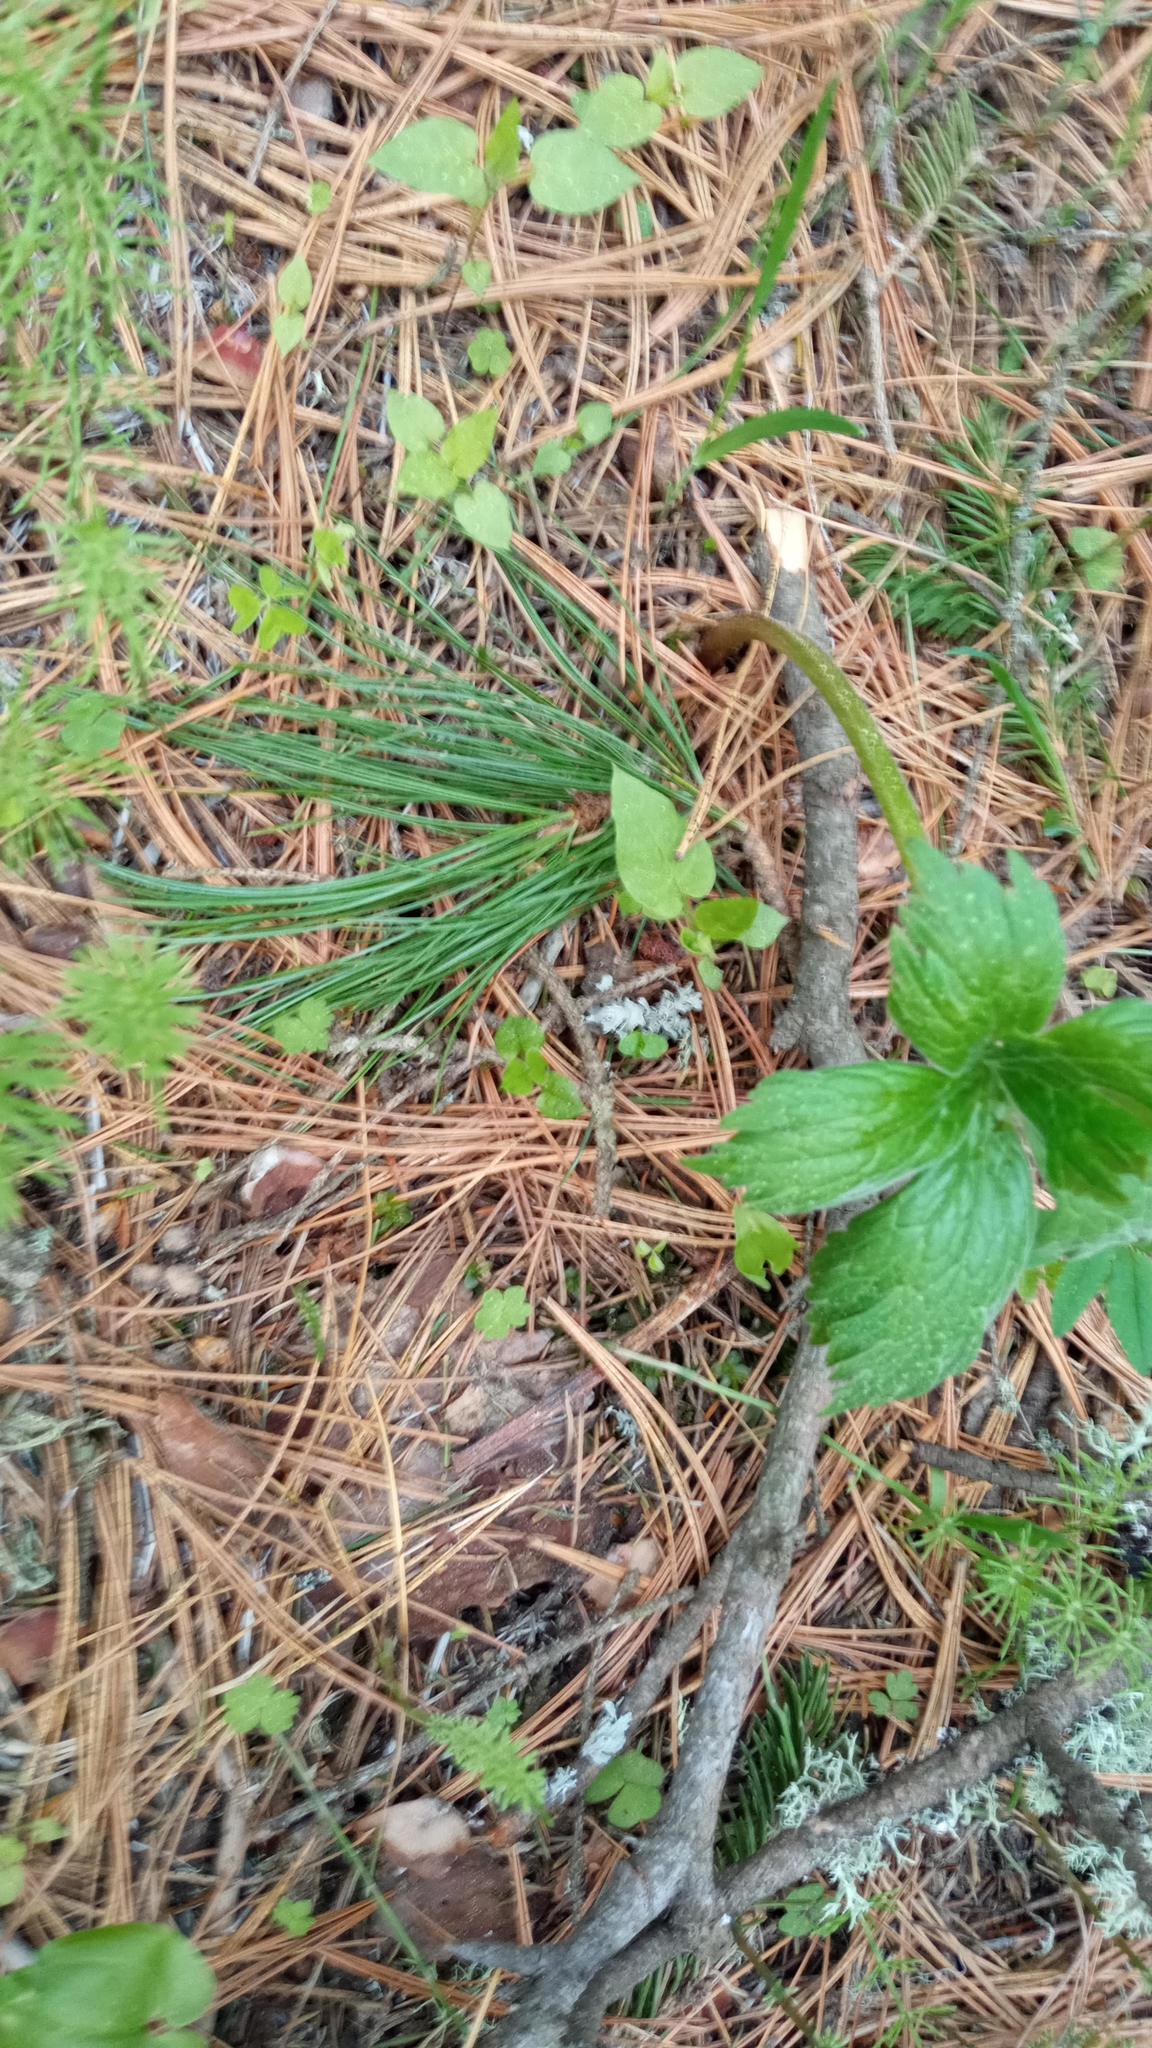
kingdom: Plantae
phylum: Tracheophyta
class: Magnoliopsida
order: Ranunculales
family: Ranunculaceae
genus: Aconitum
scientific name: Aconitum septentrionale
